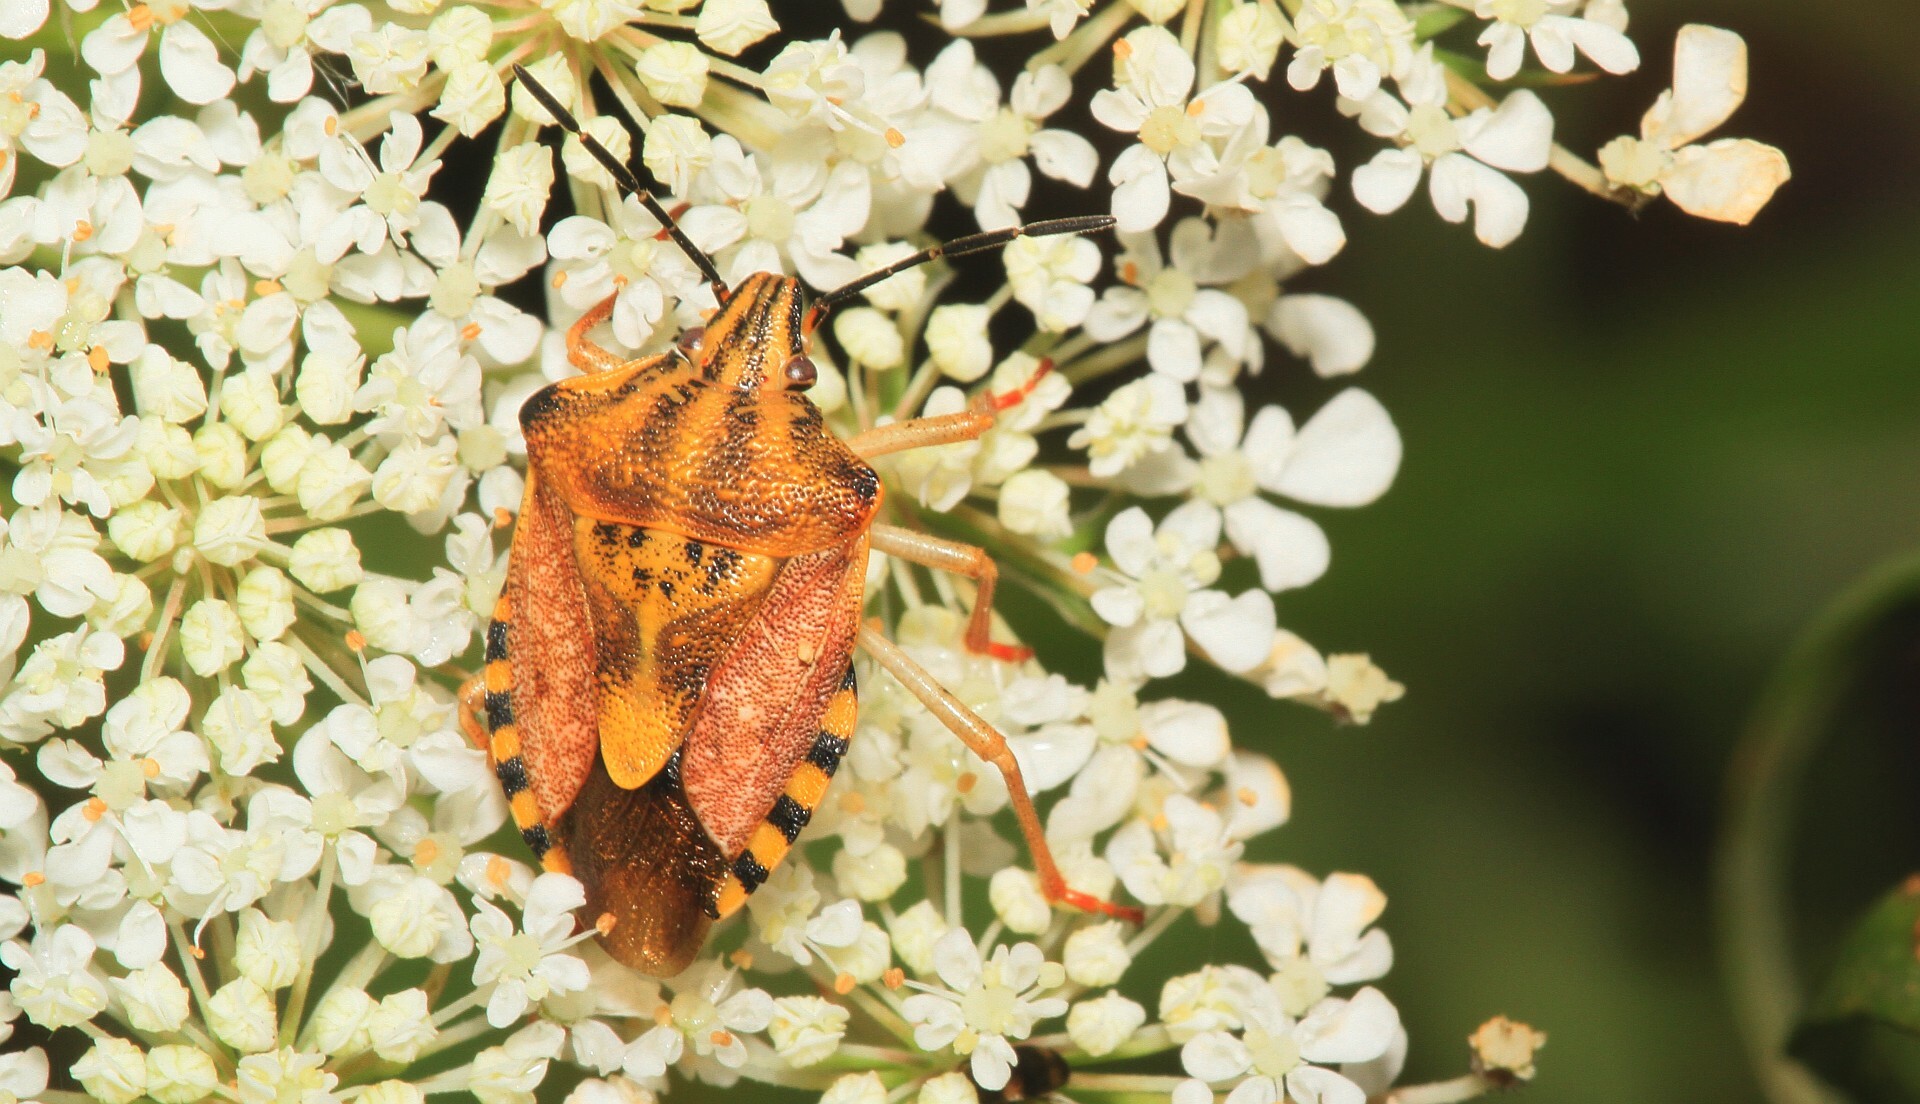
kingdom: Animalia
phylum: Arthropoda
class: Insecta
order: Hemiptera
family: Pentatomidae
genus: Carpocoris
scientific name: Carpocoris purpureipennis
